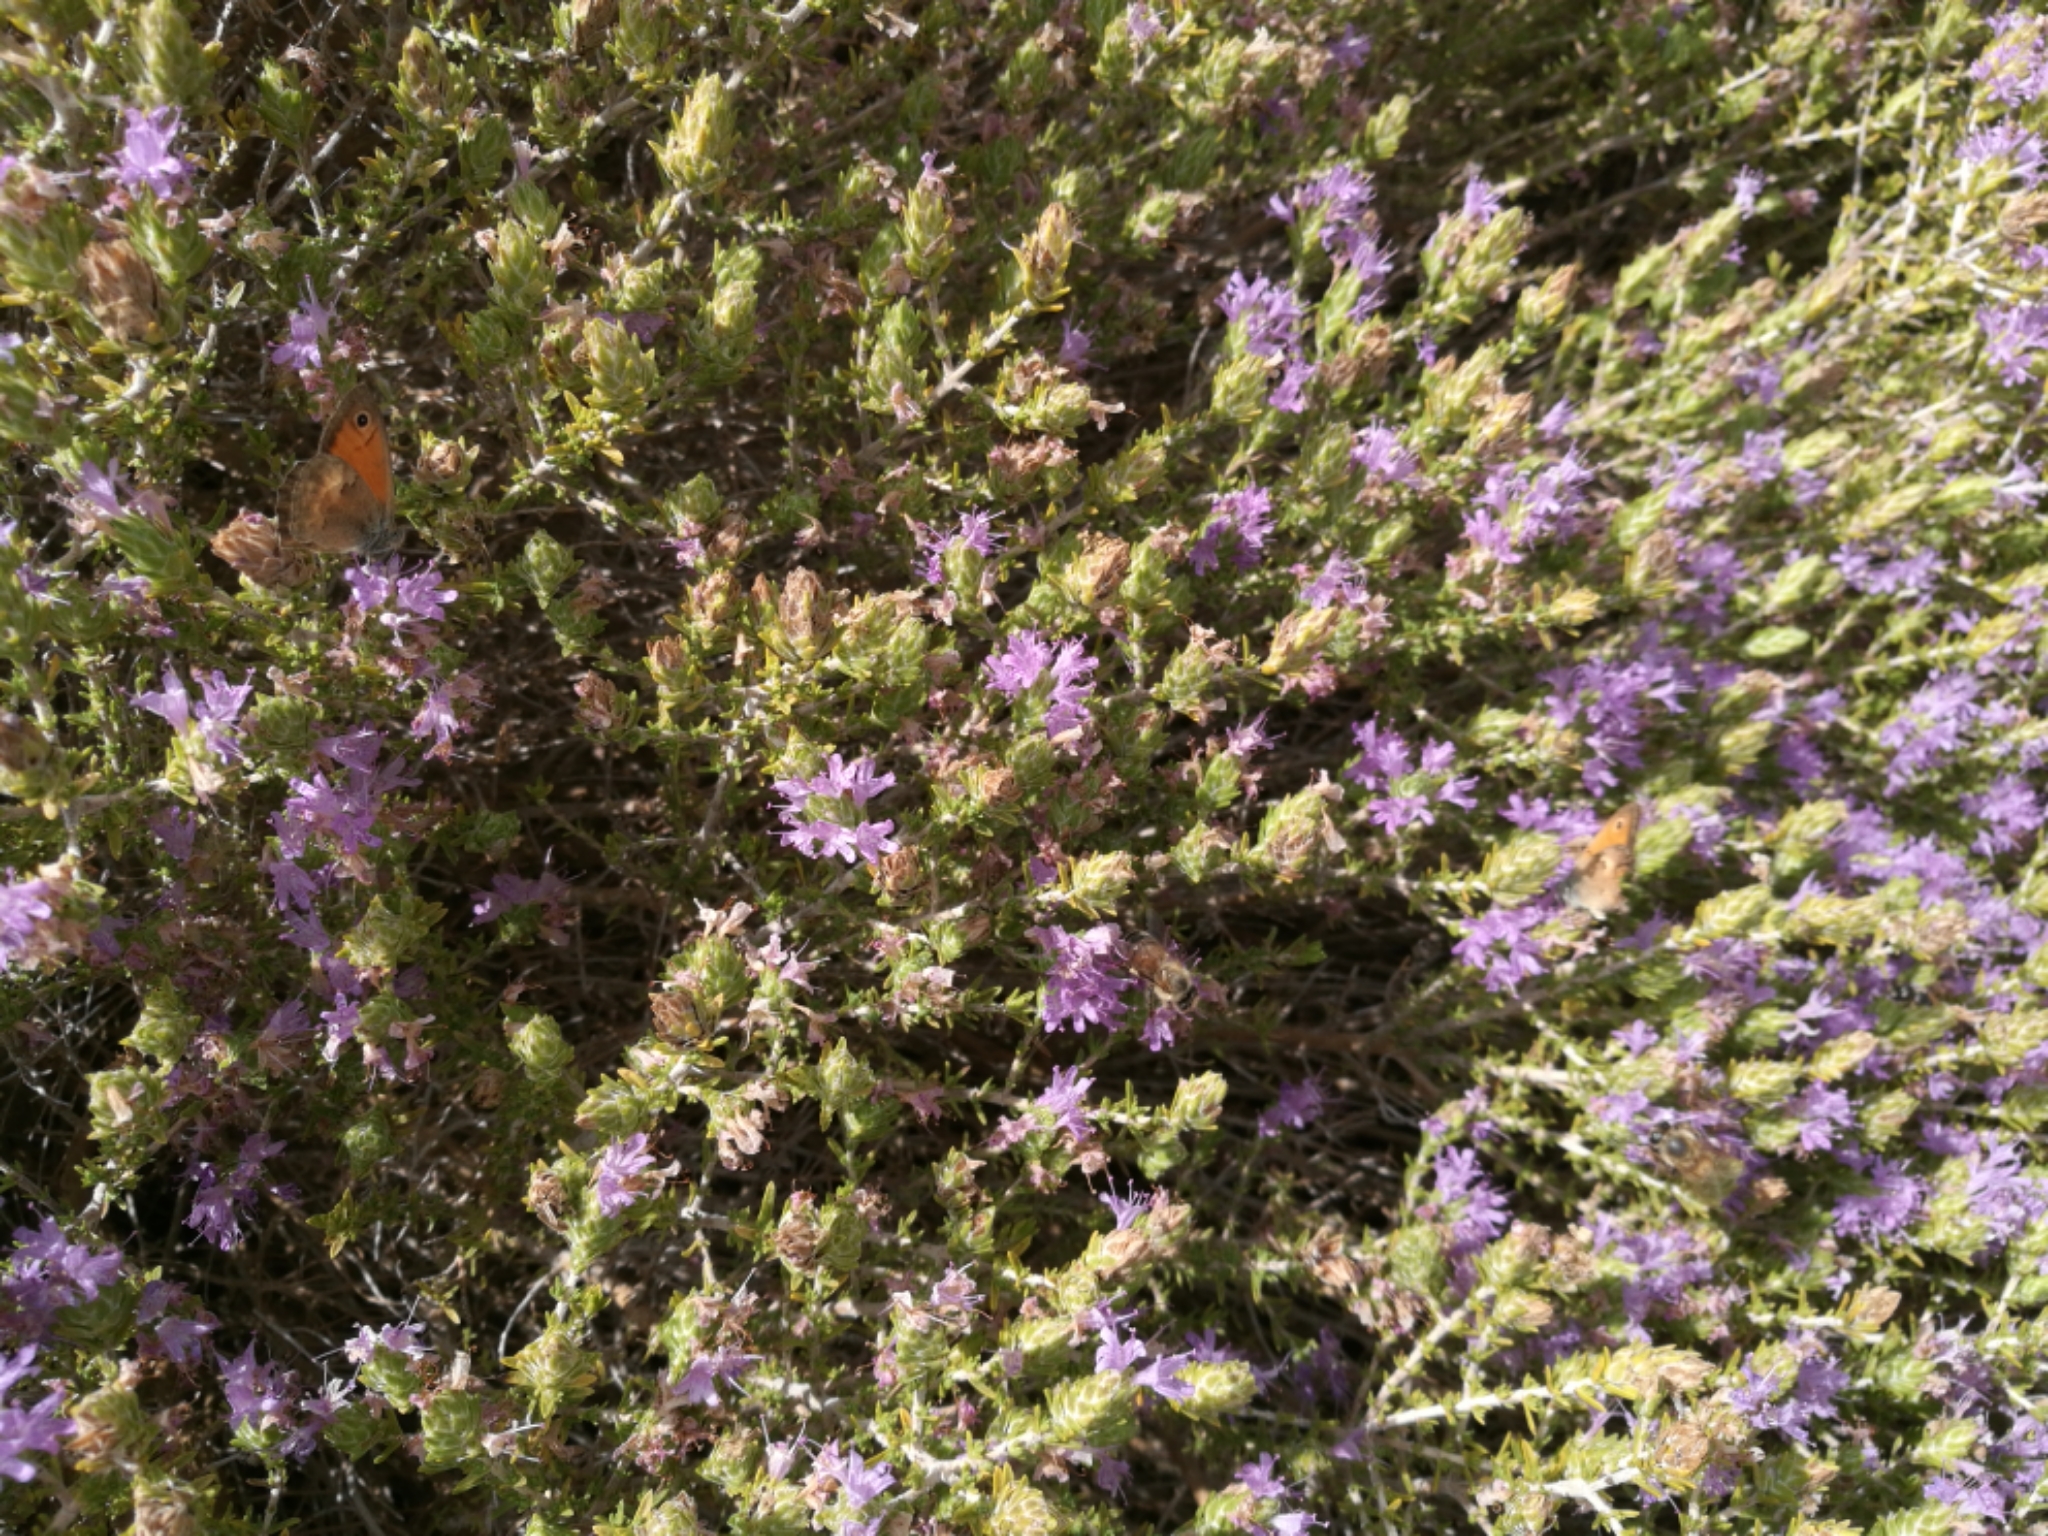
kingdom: Animalia
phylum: Arthropoda
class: Insecta
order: Lepidoptera
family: Nymphalidae
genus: Coenonympha
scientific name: Coenonympha pamphilus
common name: Small heath
